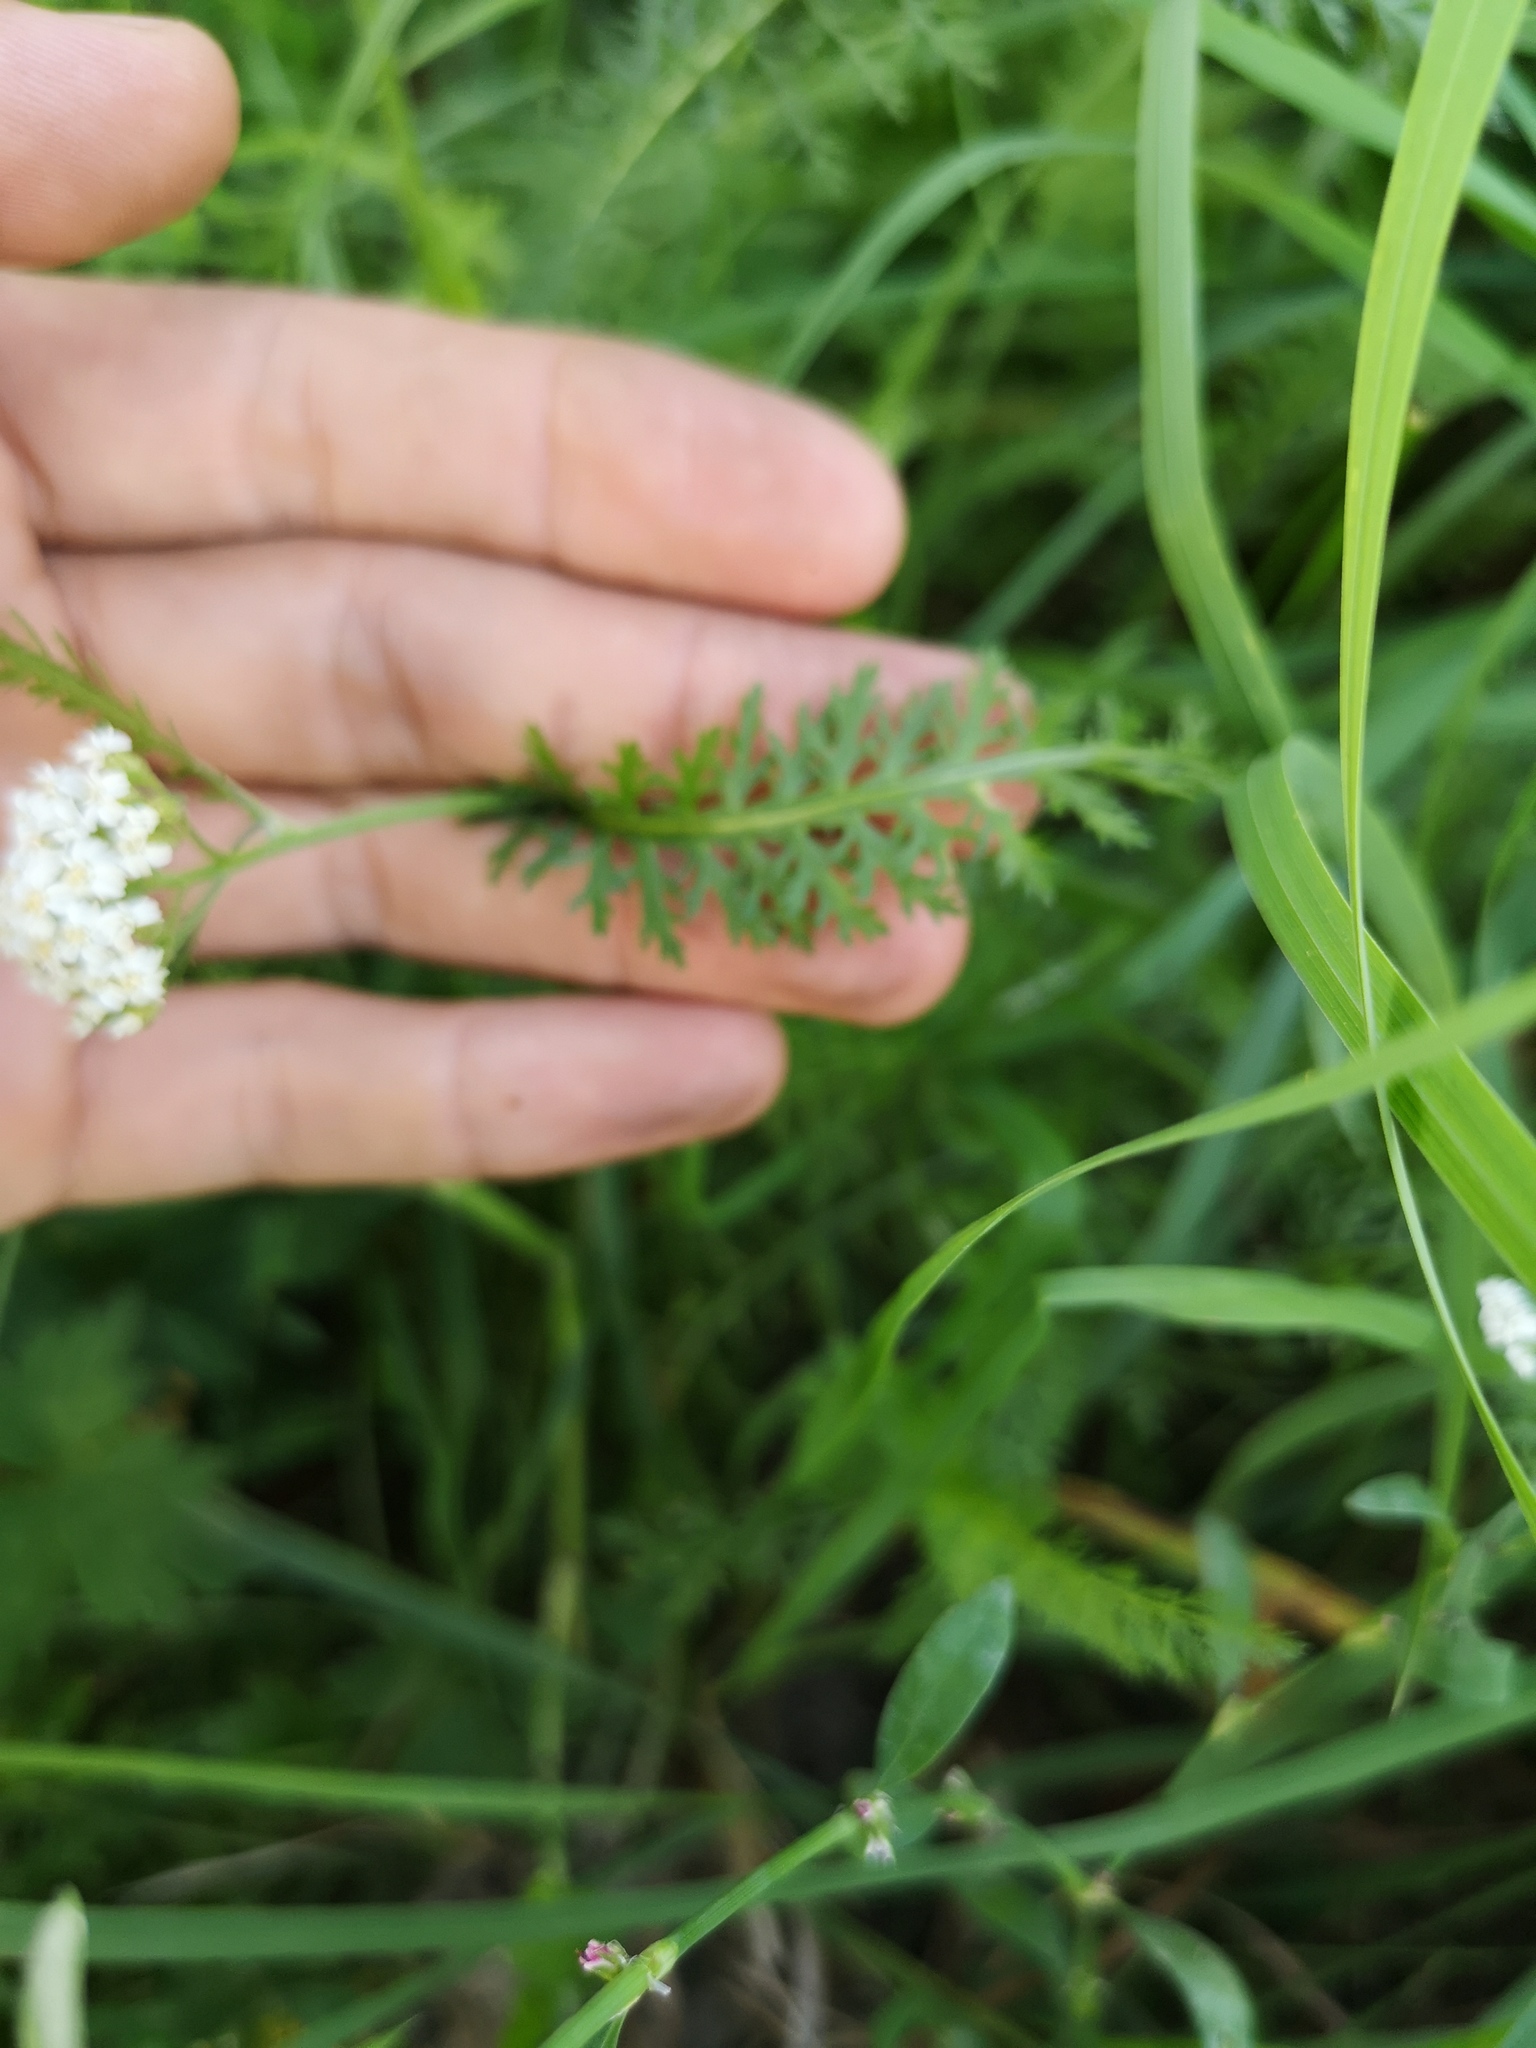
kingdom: Plantae
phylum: Tracheophyta
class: Magnoliopsida
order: Asterales
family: Asteraceae
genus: Achillea
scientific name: Achillea millefolium
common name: Yarrow
